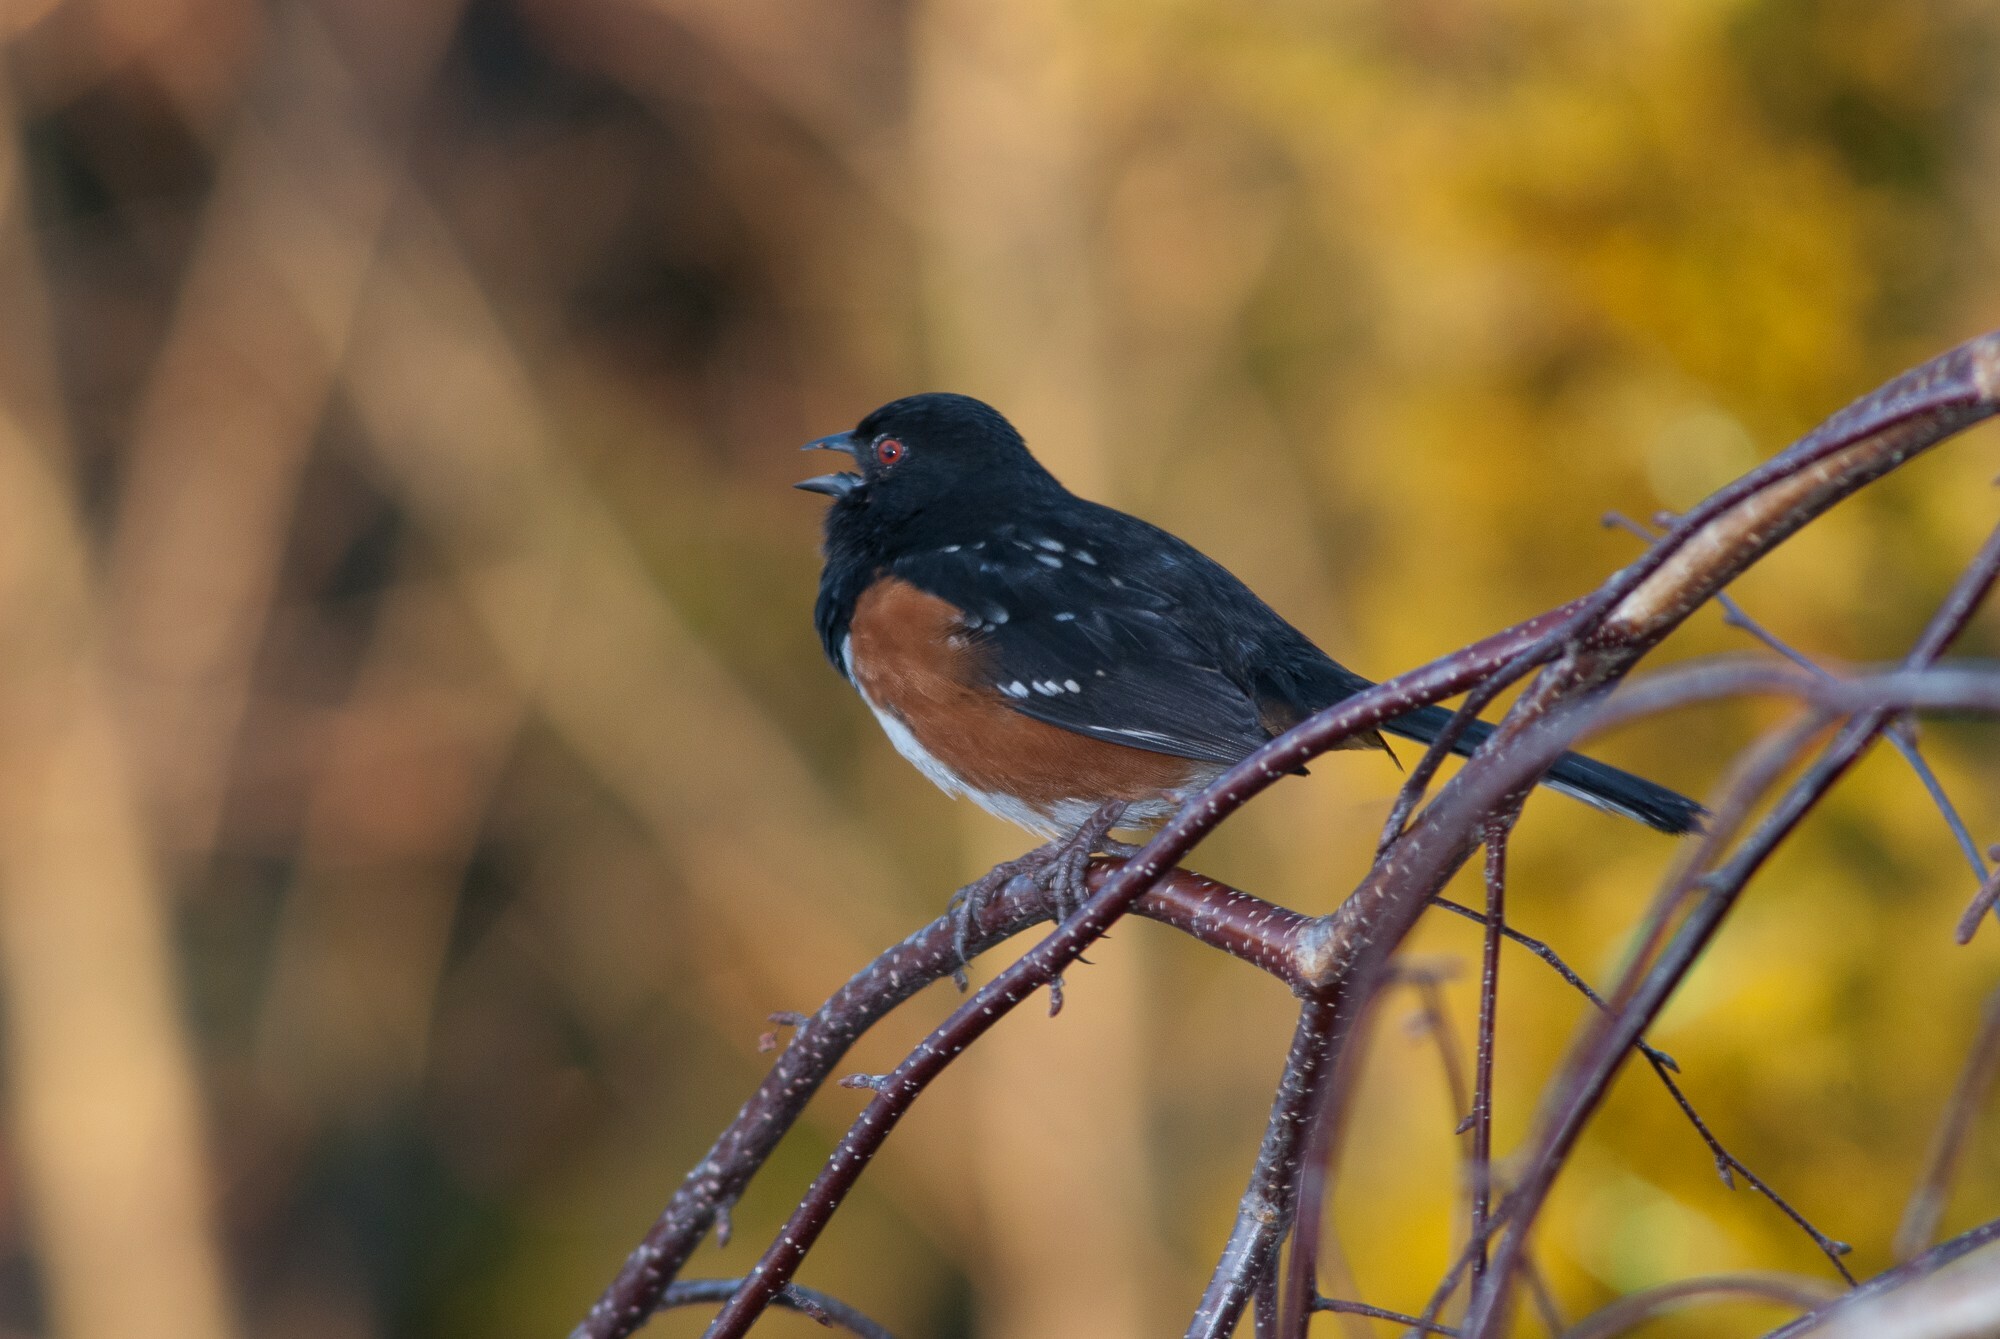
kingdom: Animalia
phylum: Chordata
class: Aves
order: Passeriformes
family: Passerellidae
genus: Pipilo
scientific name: Pipilo maculatus
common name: Spotted towhee
